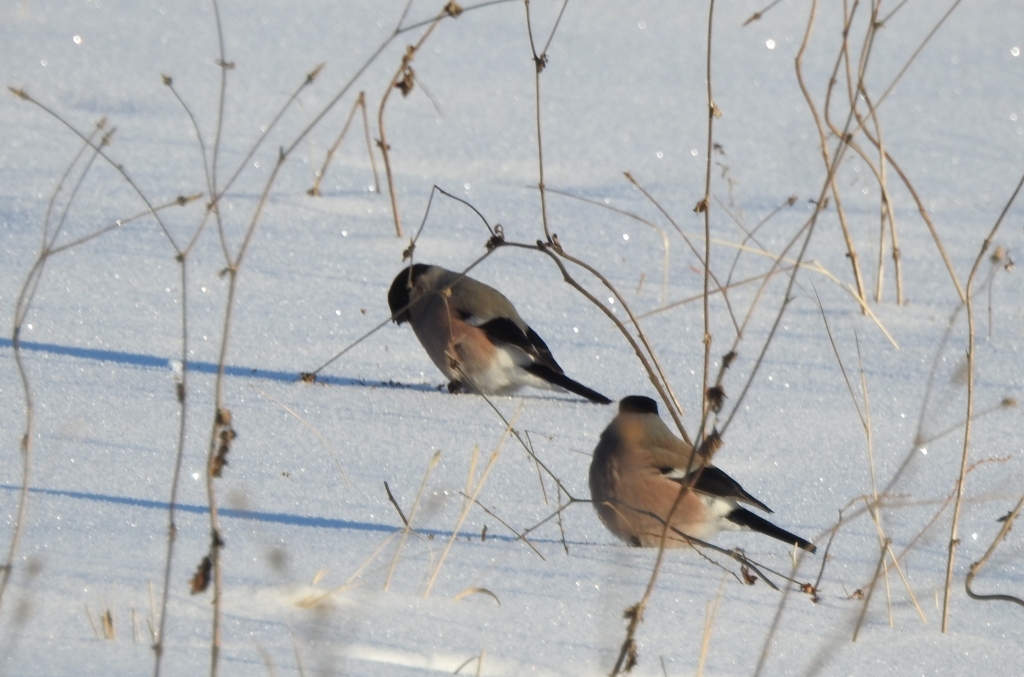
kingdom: Animalia
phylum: Chordata
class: Aves
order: Passeriformes
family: Fringillidae
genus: Pyrrhula
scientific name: Pyrrhula pyrrhula
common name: Eurasian bullfinch
